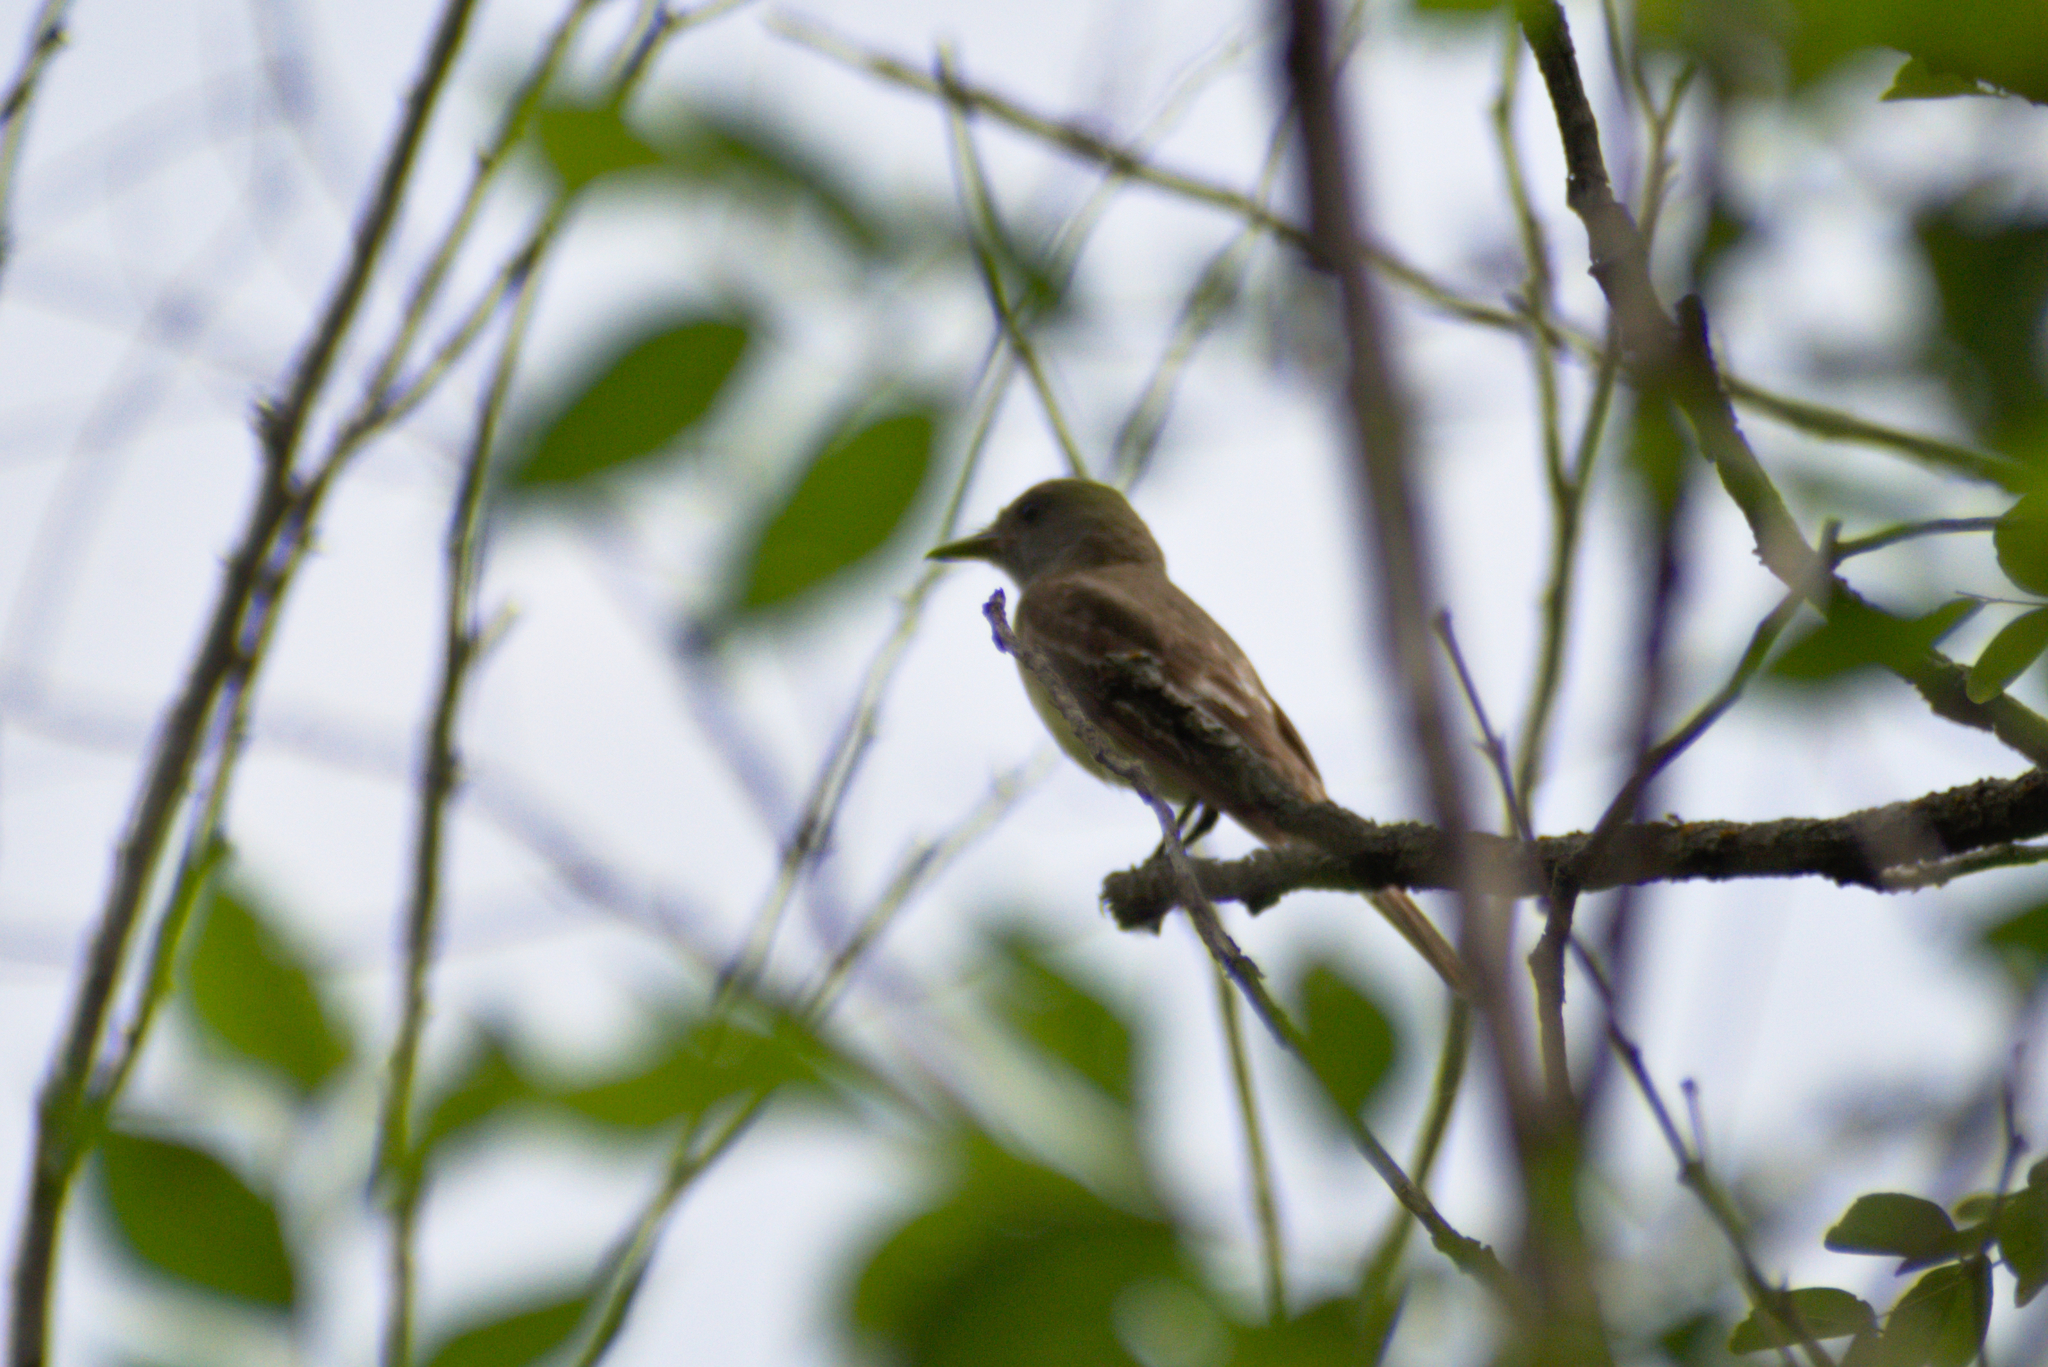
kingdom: Animalia
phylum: Chordata
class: Aves
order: Passeriformes
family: Tyrannidae
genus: Myiarchus
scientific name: Myiarchus crinitus
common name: Great crested flycatcher
